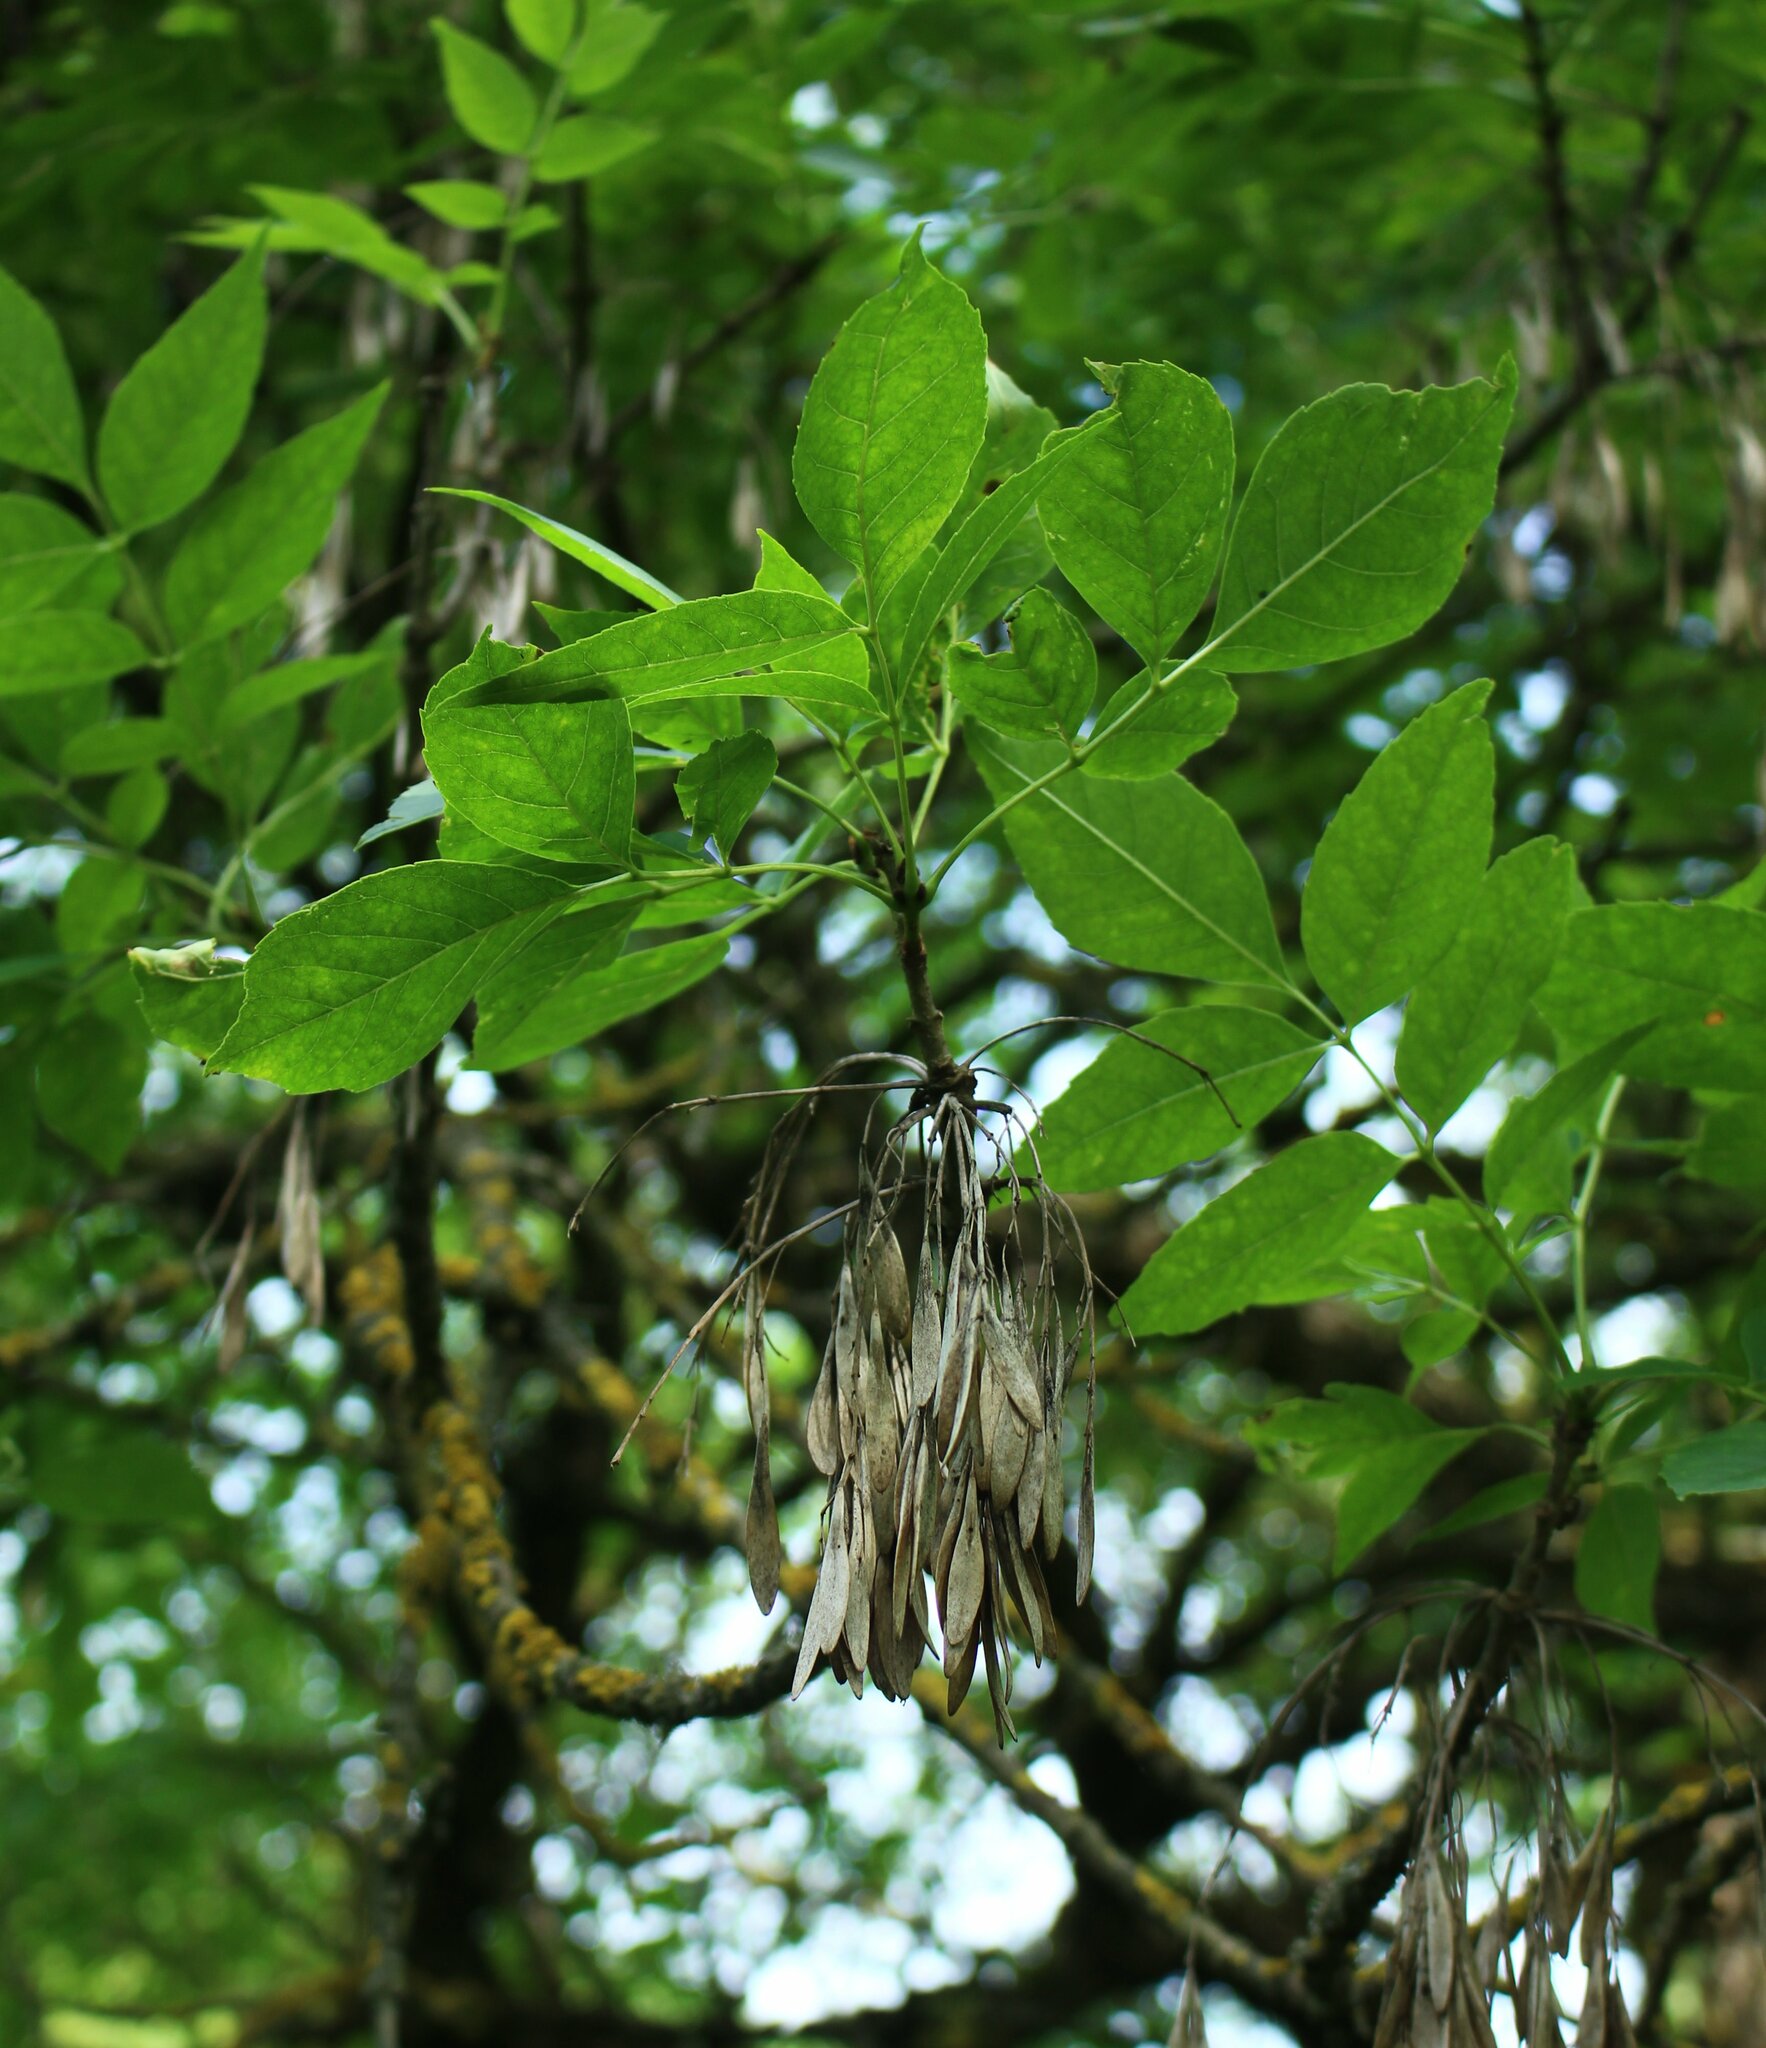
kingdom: Plantae
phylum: Tracheophyta
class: Magnoliopsida
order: Lamiales
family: Oleaceae
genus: Fraxinus
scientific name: Fraxinus pennsylvanica
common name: Green ash
